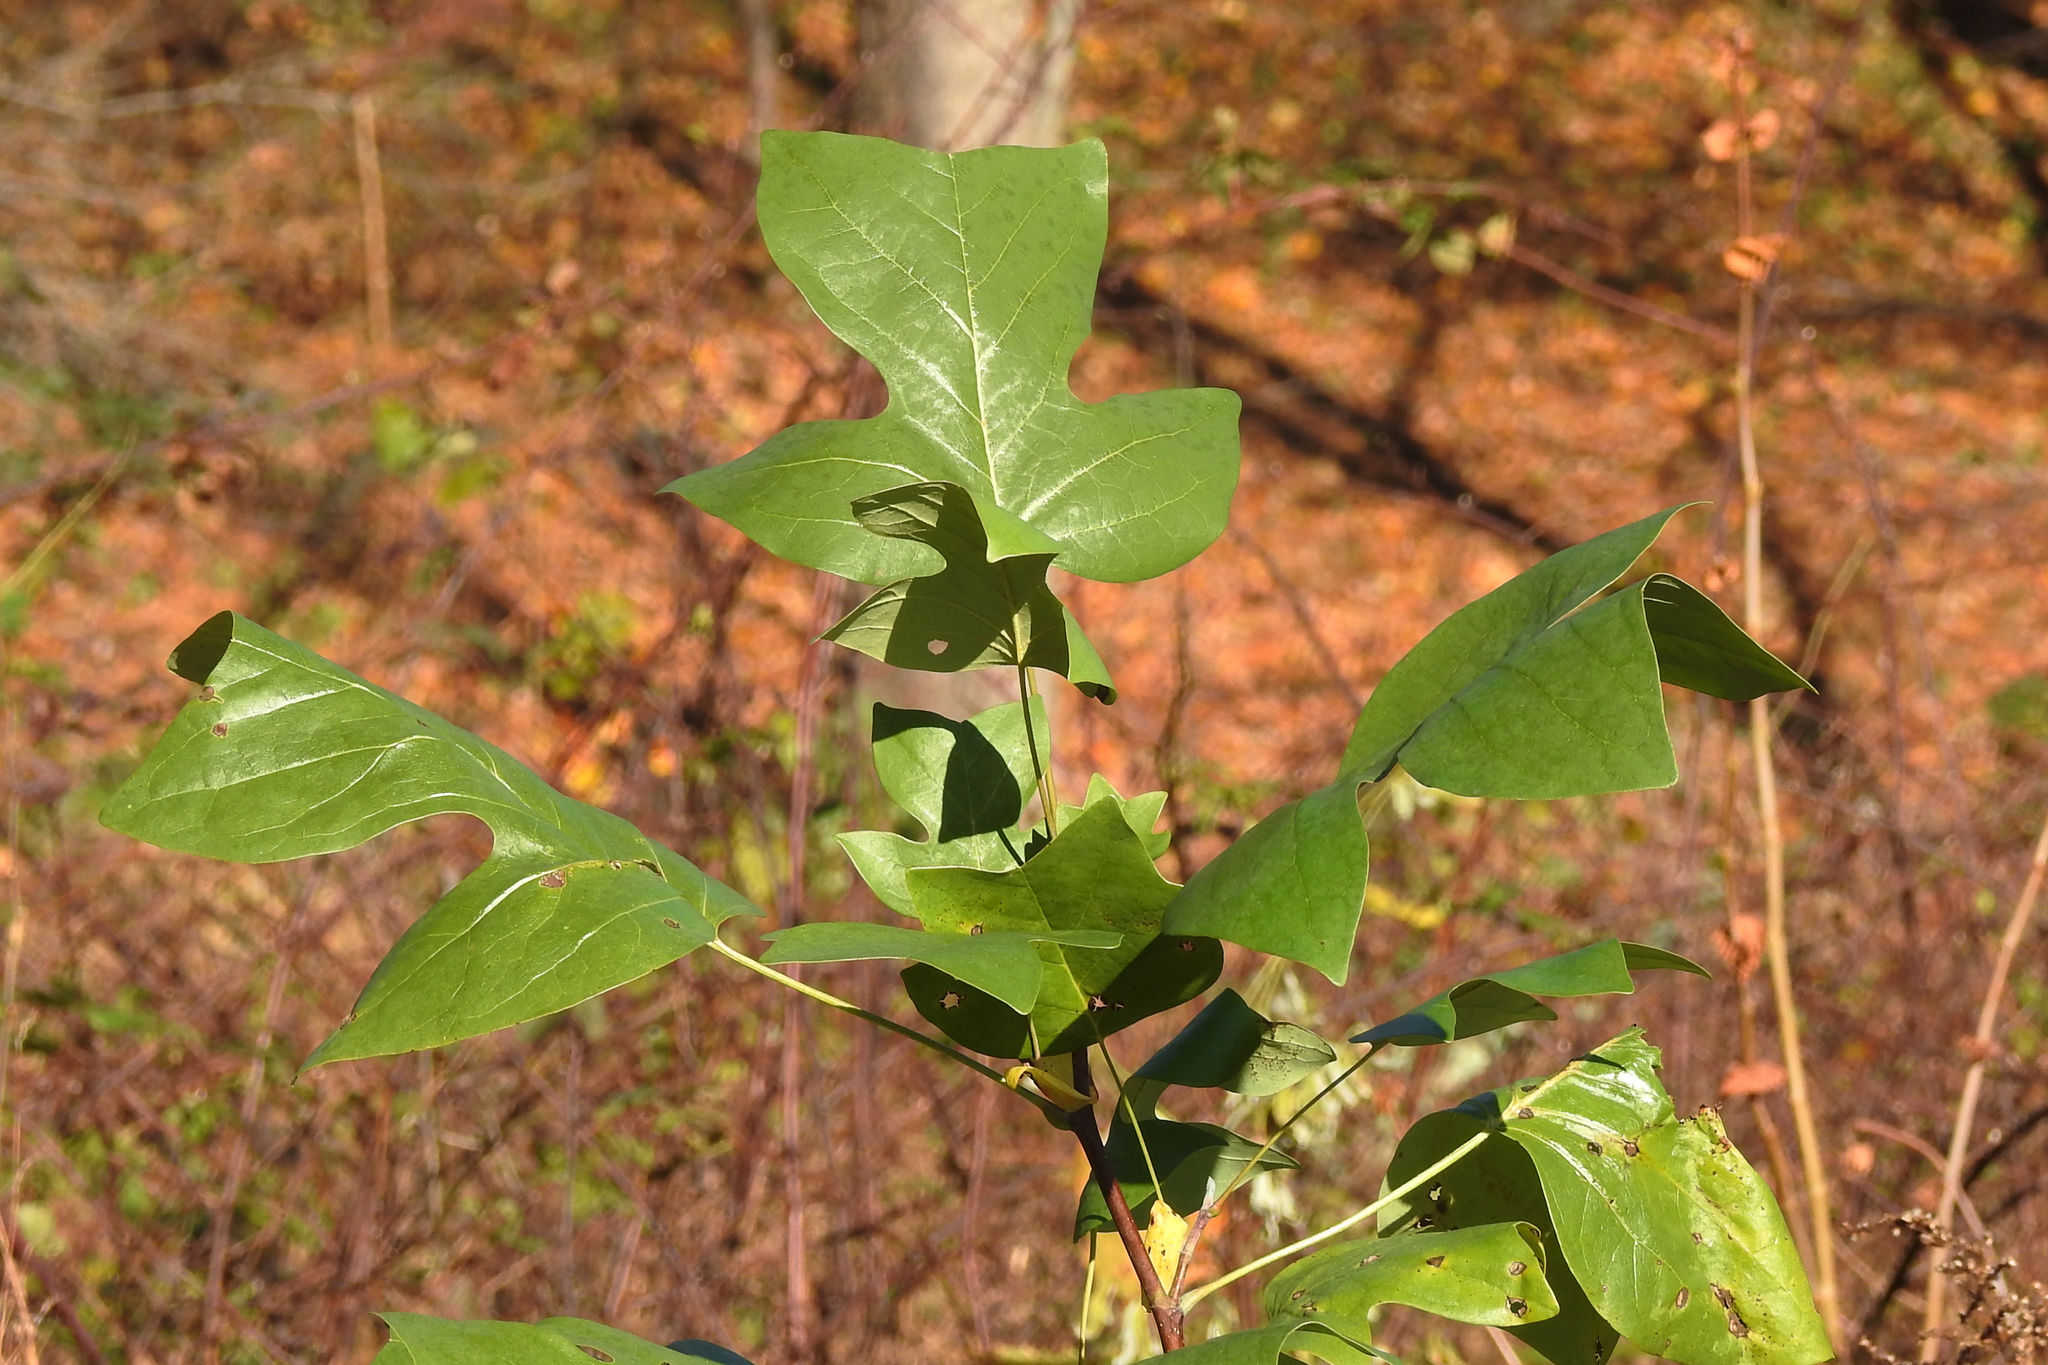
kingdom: Plantae
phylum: Tracheophyta
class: Magnoliopsida
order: Magnoliales
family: Magnoliaceae
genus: Liriodendron
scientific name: Liriodendron tulipifera
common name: Tulip tree
